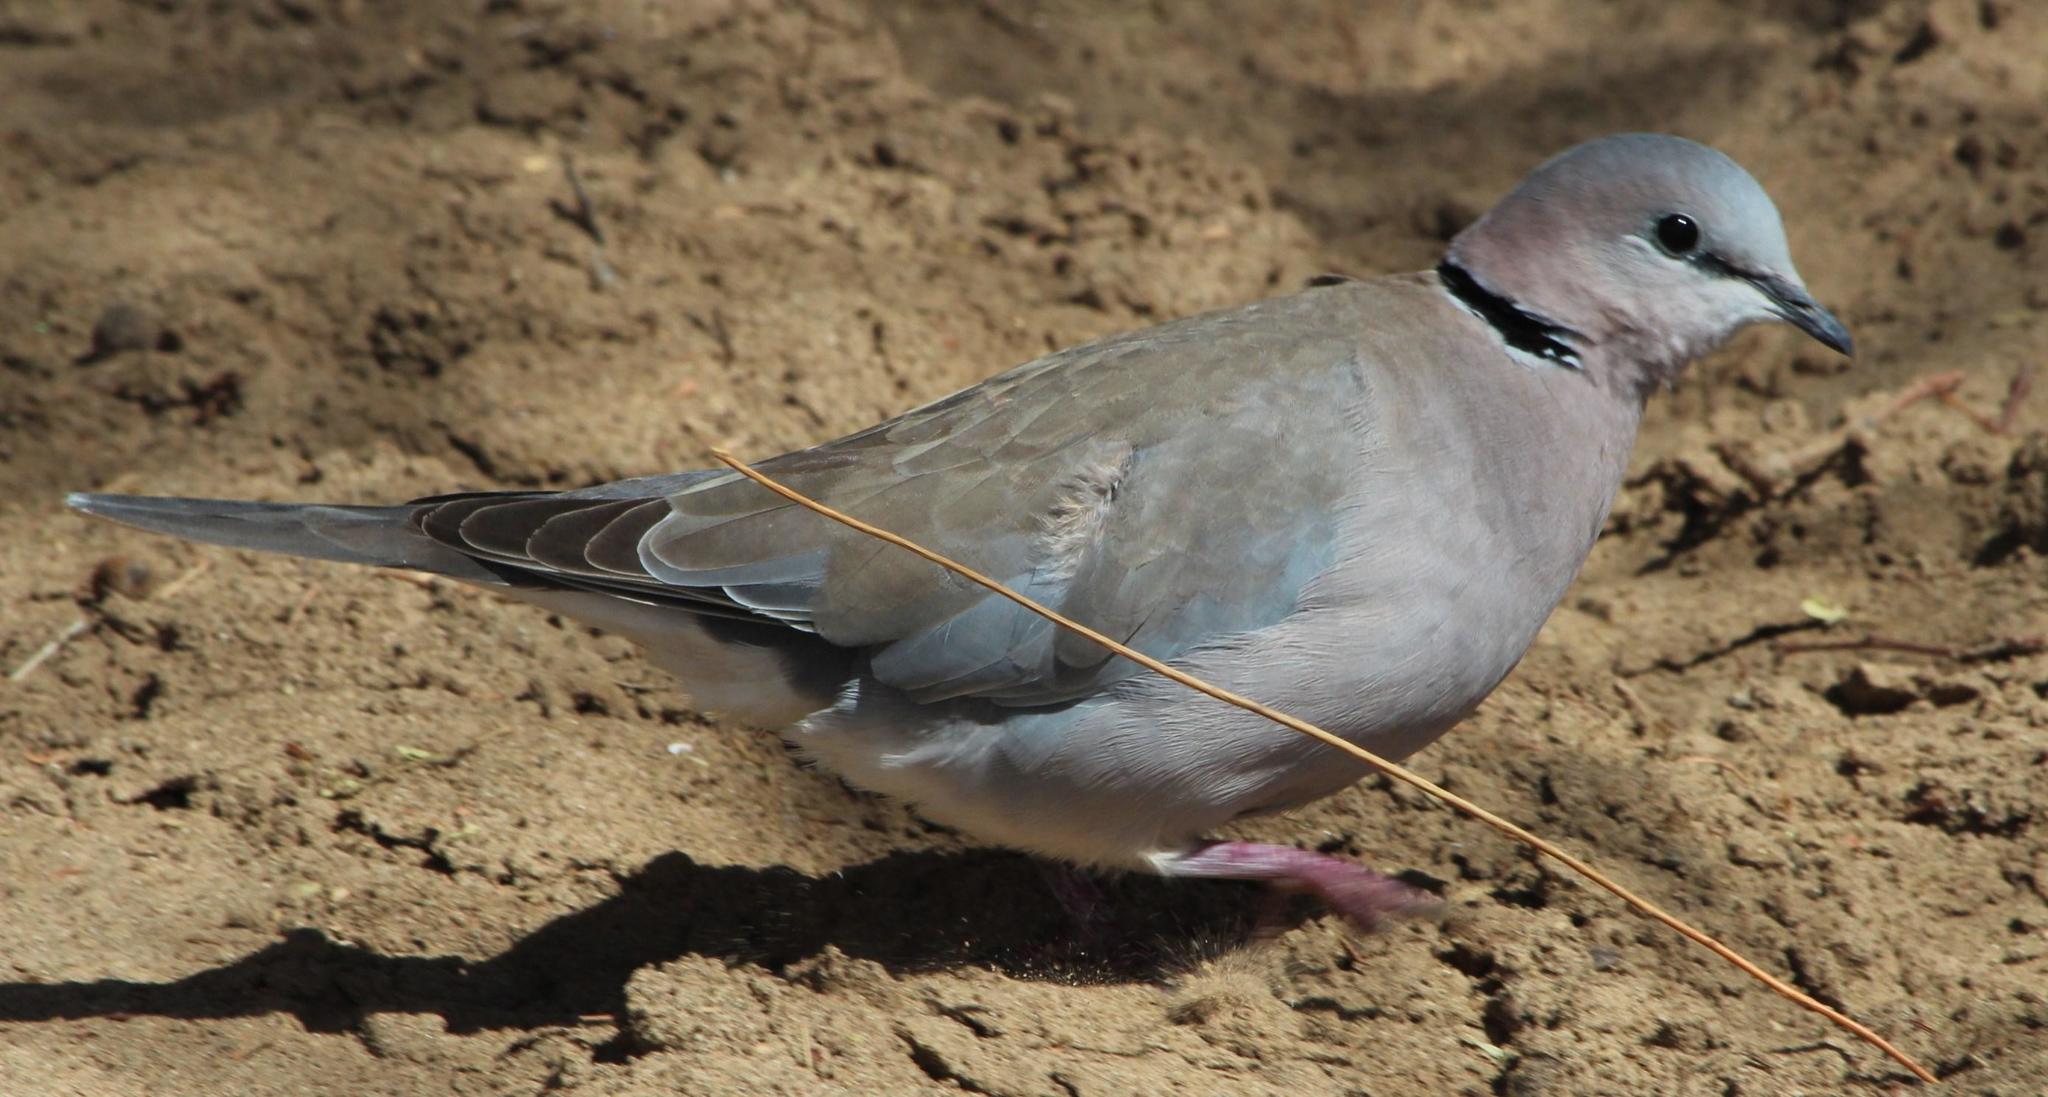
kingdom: Animalia
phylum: Chordata
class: Aves
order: Columbiformes
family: Columbidae
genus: Streptopelia
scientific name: Streptopelia capicola
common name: Ring-necked dove
